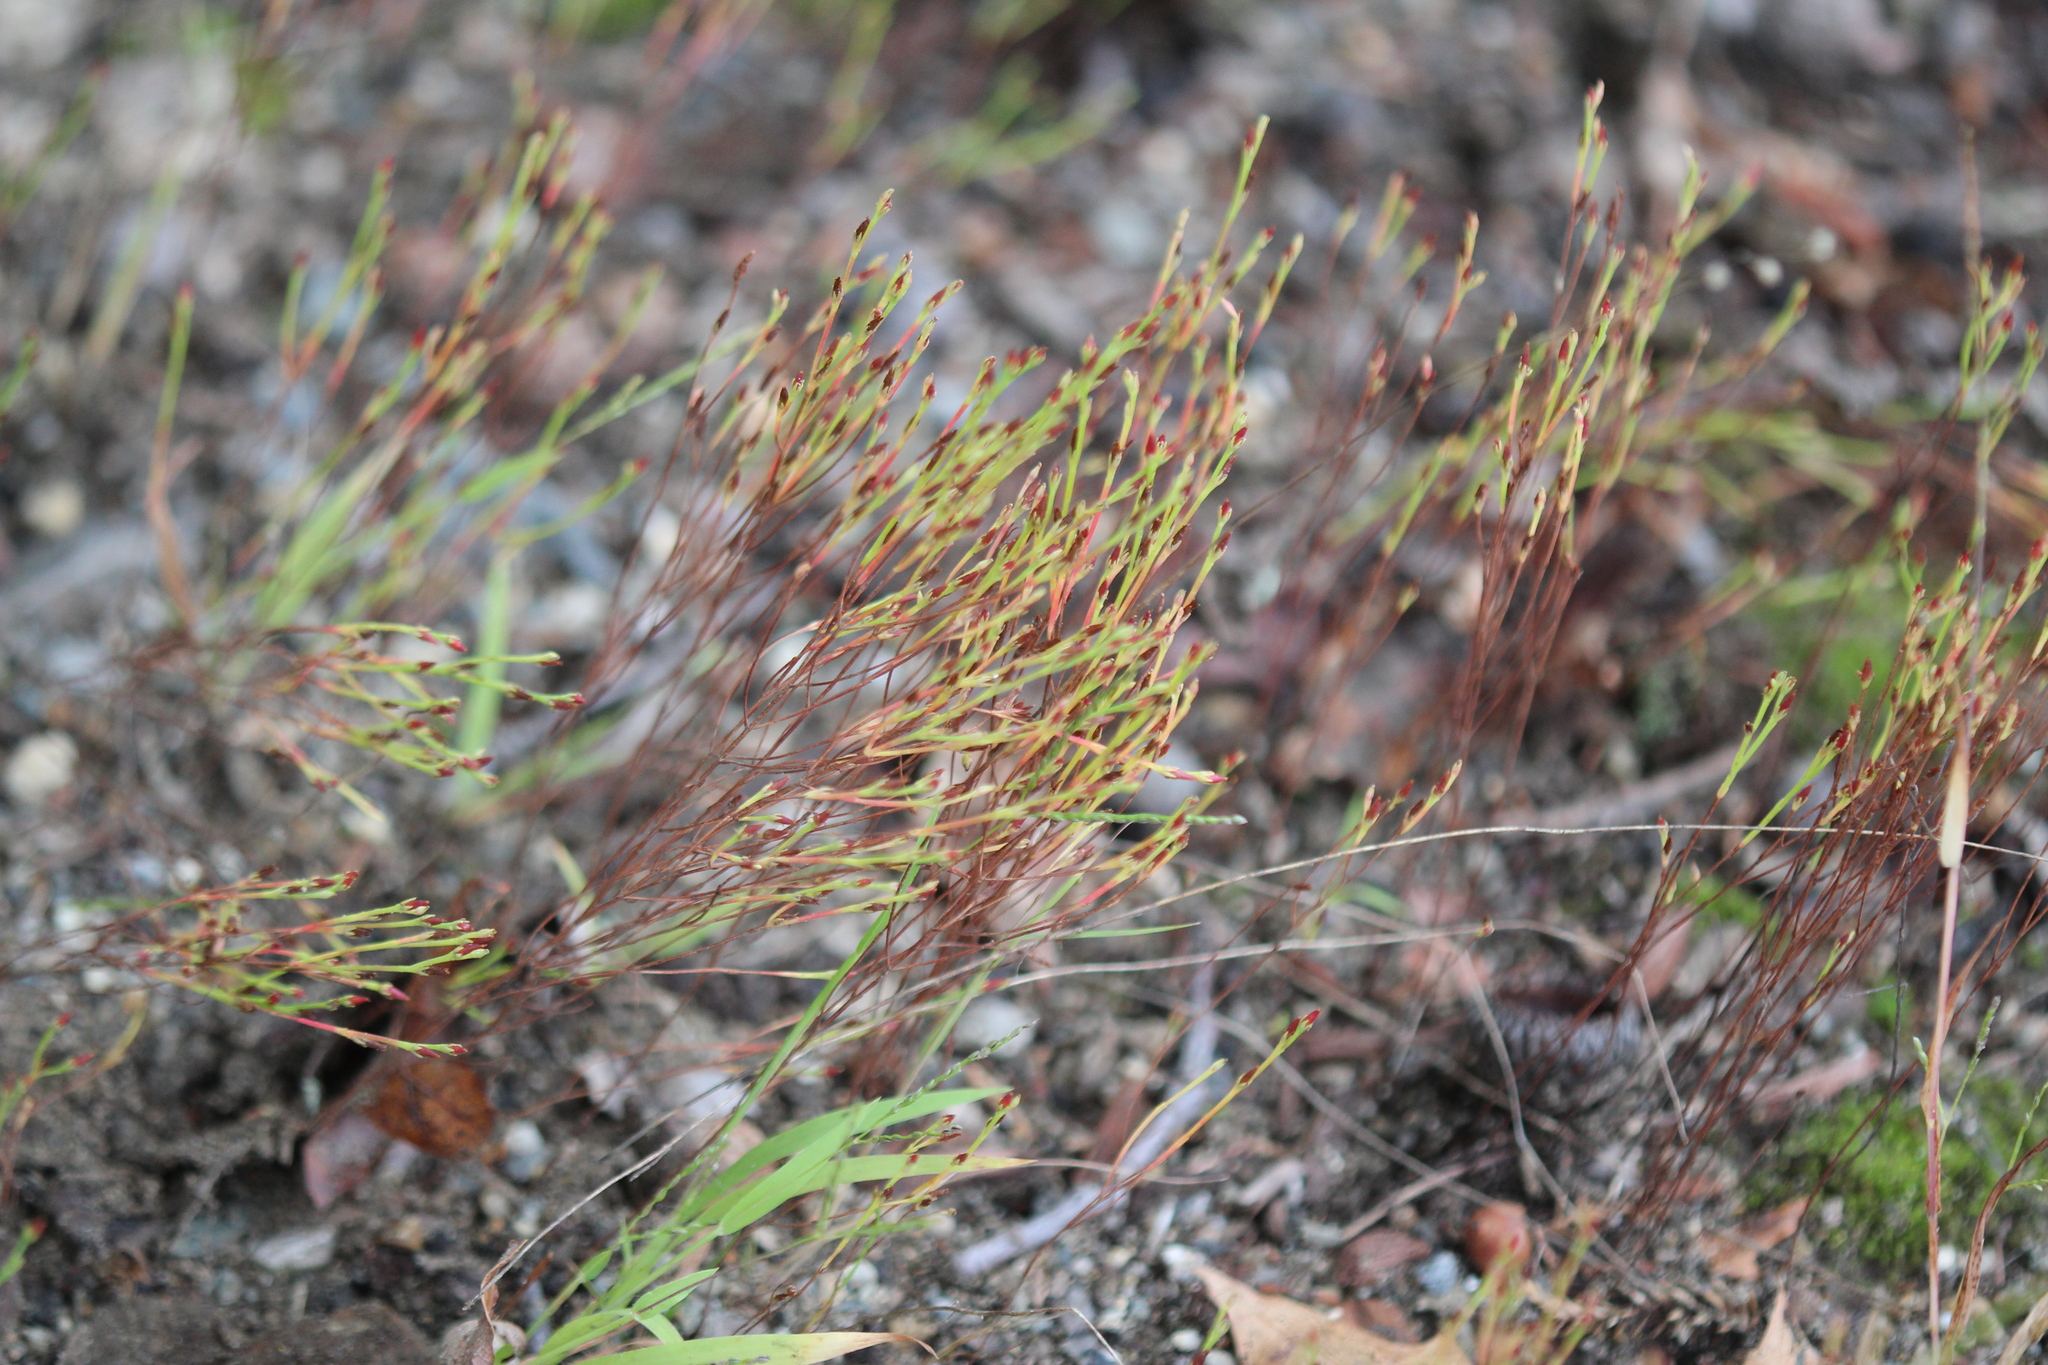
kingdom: Plantae
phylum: Tracheophyta
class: Magnoliopsida
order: Malpighiales
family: Hypericaceae
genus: Hypericum
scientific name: Hypericum gentianoides
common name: Gentian-leaved st. john's-wort
